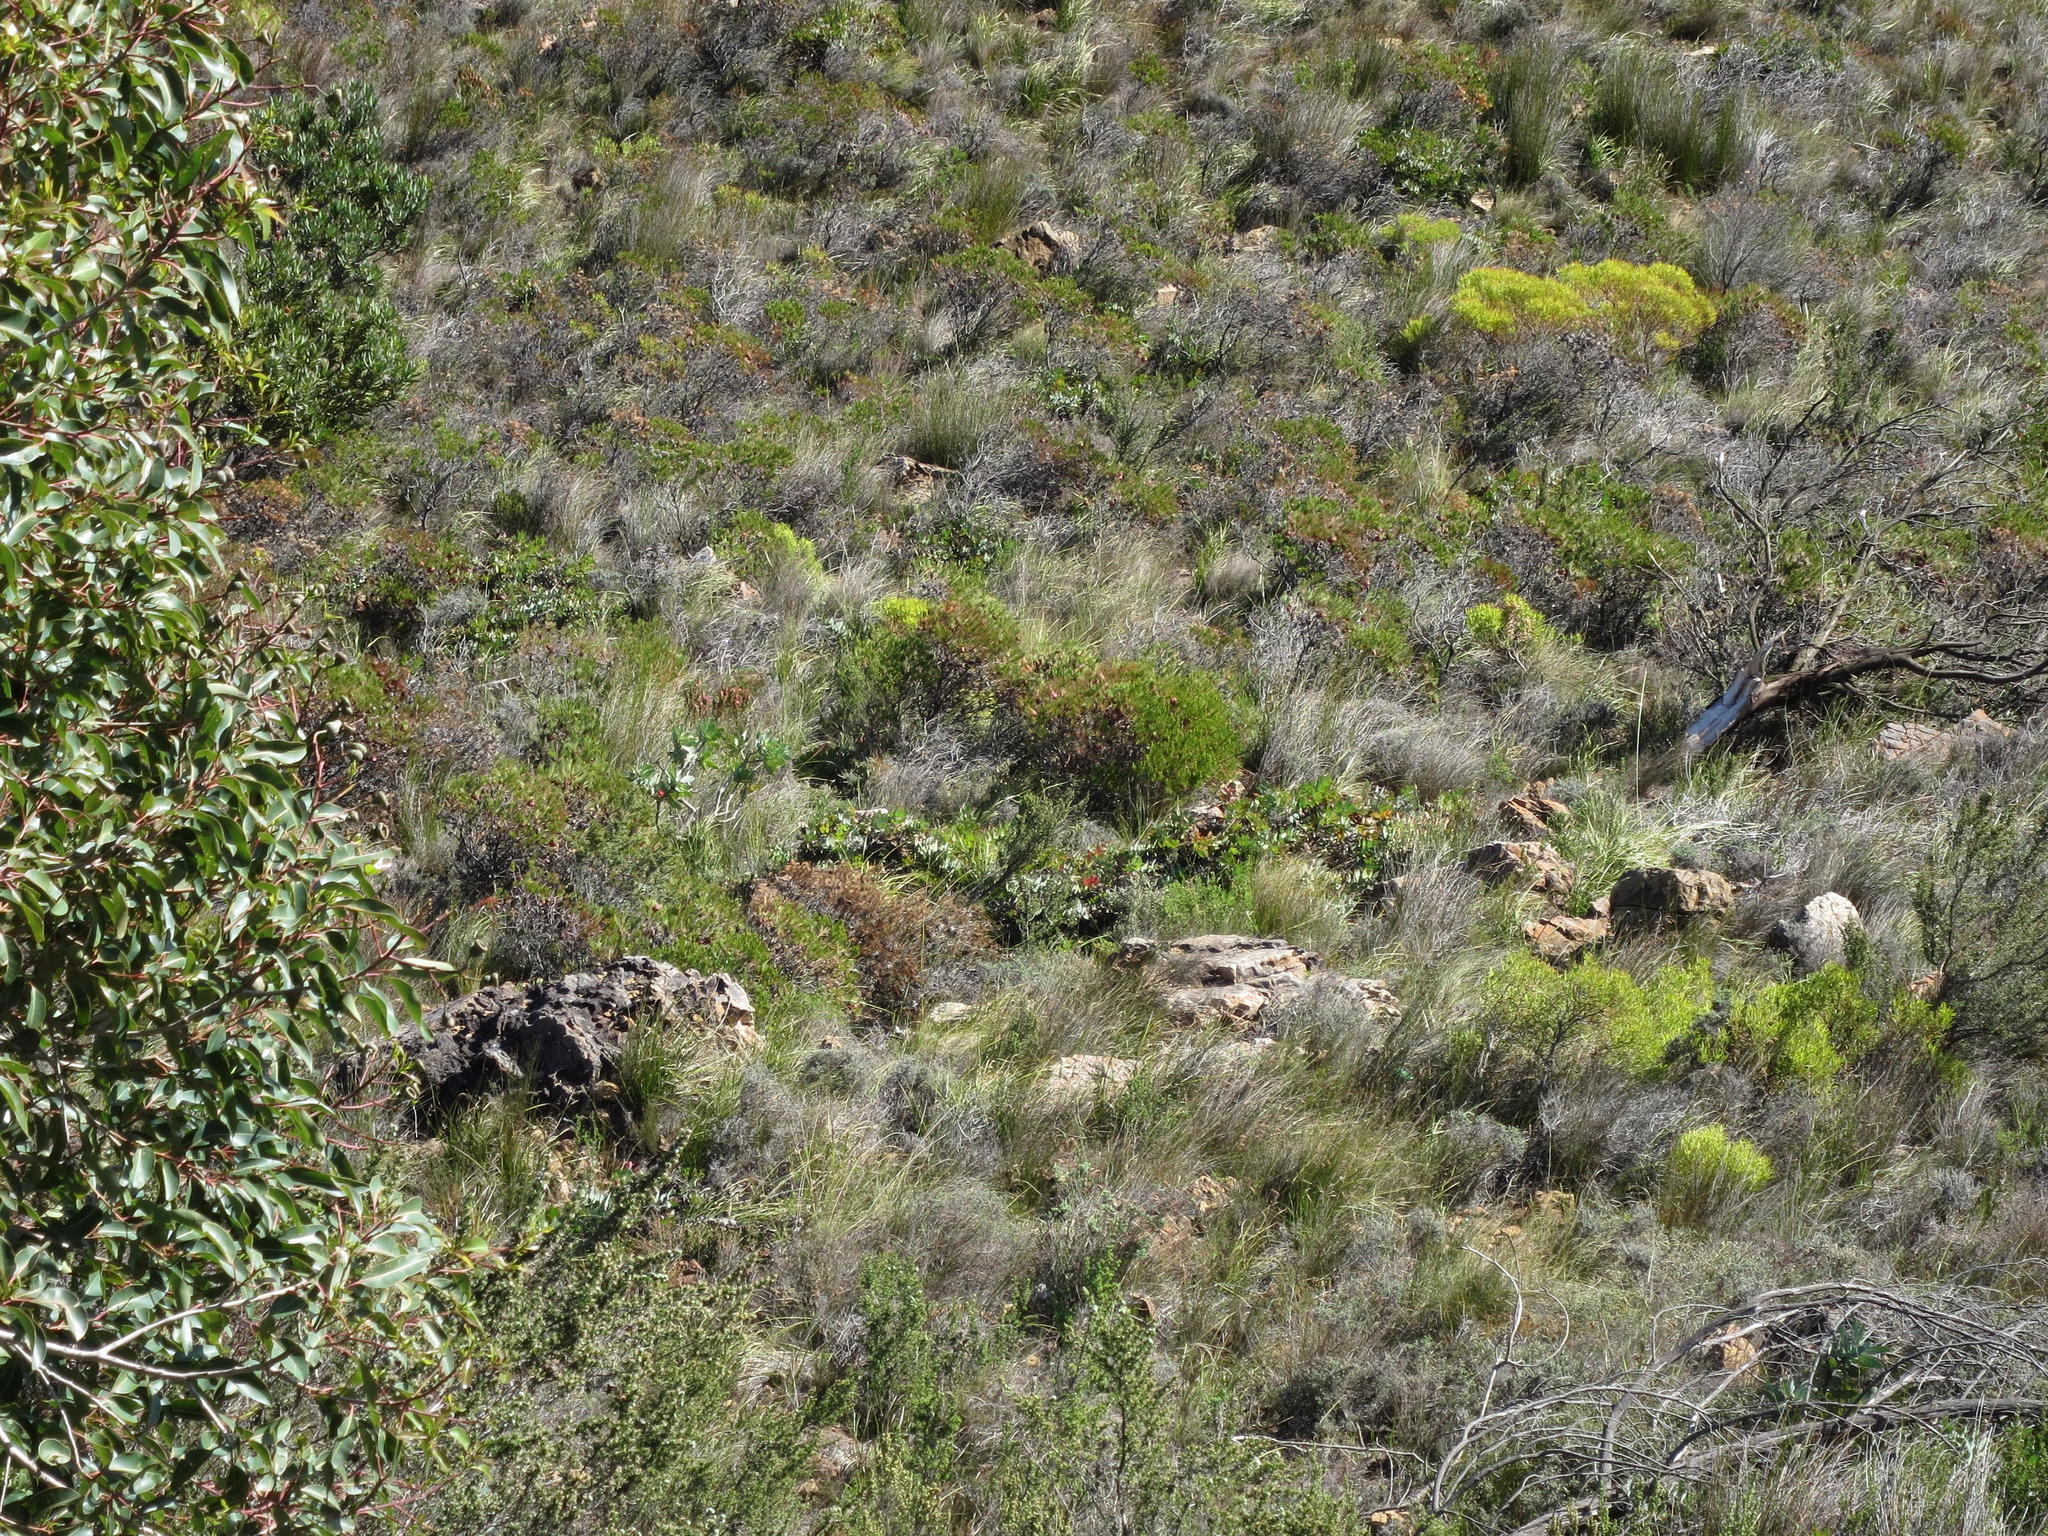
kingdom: Plantae
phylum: Tracheophyta
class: Magnoliopsida
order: Proteales
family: Proteaceae
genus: Protea
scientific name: Protea nana
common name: Mountain rose
